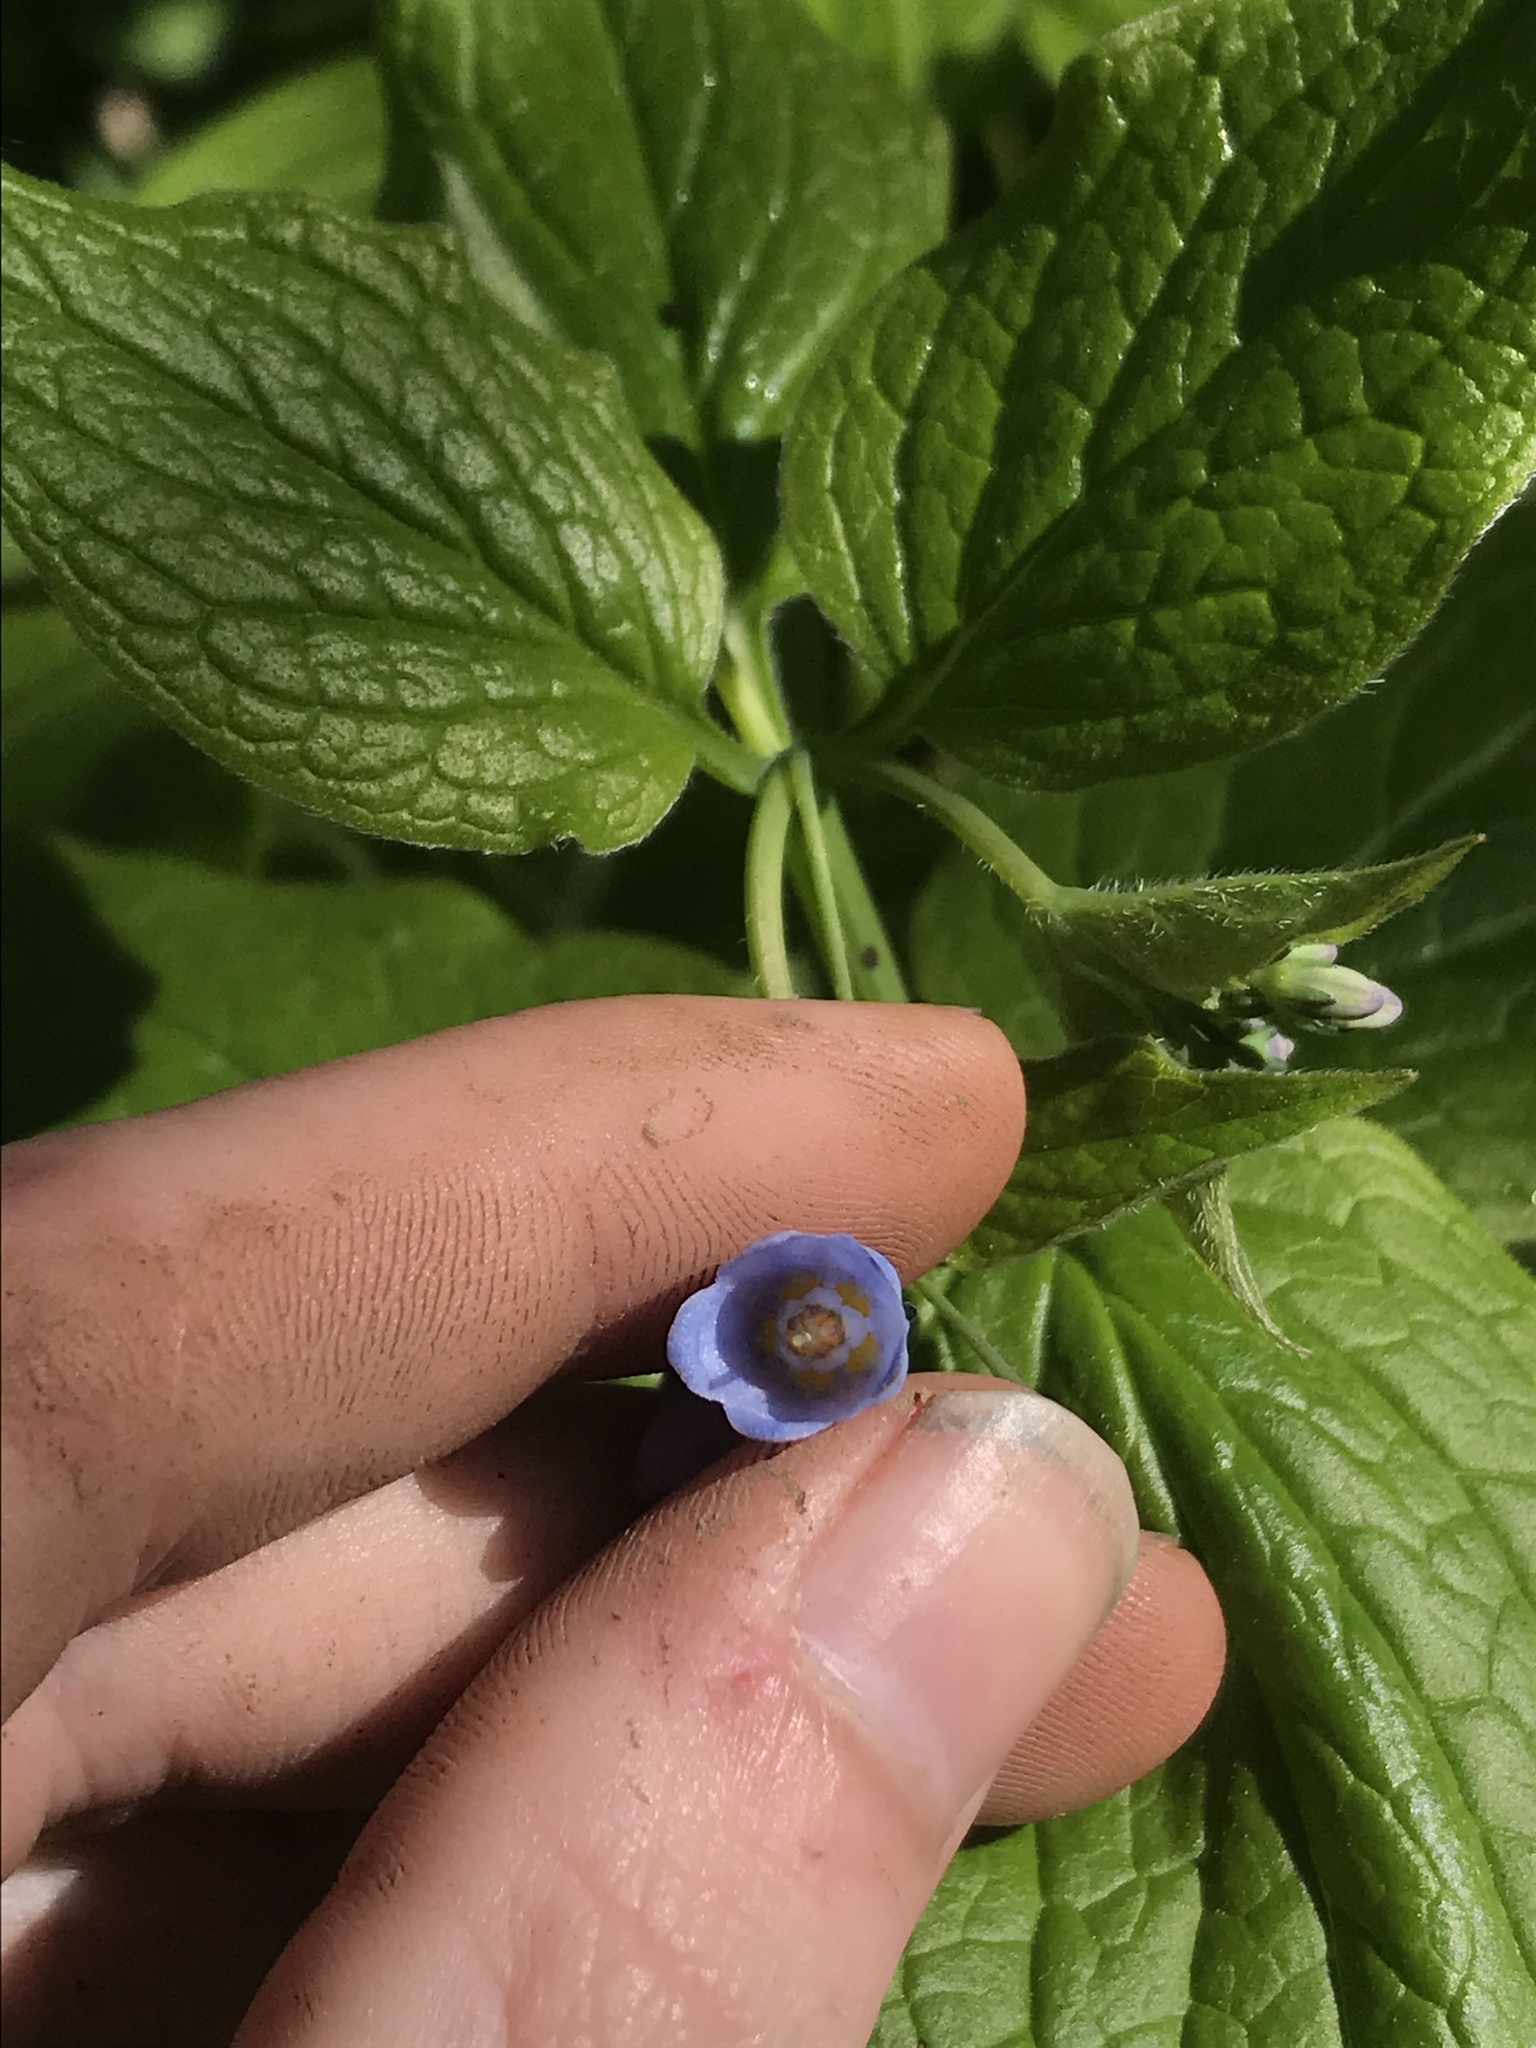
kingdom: Plantae
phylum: Tracheophyta
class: Magnoliopsida
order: Boraginales
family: Boraginaceae
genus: Mertensia
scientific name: Mertensia subcordata
